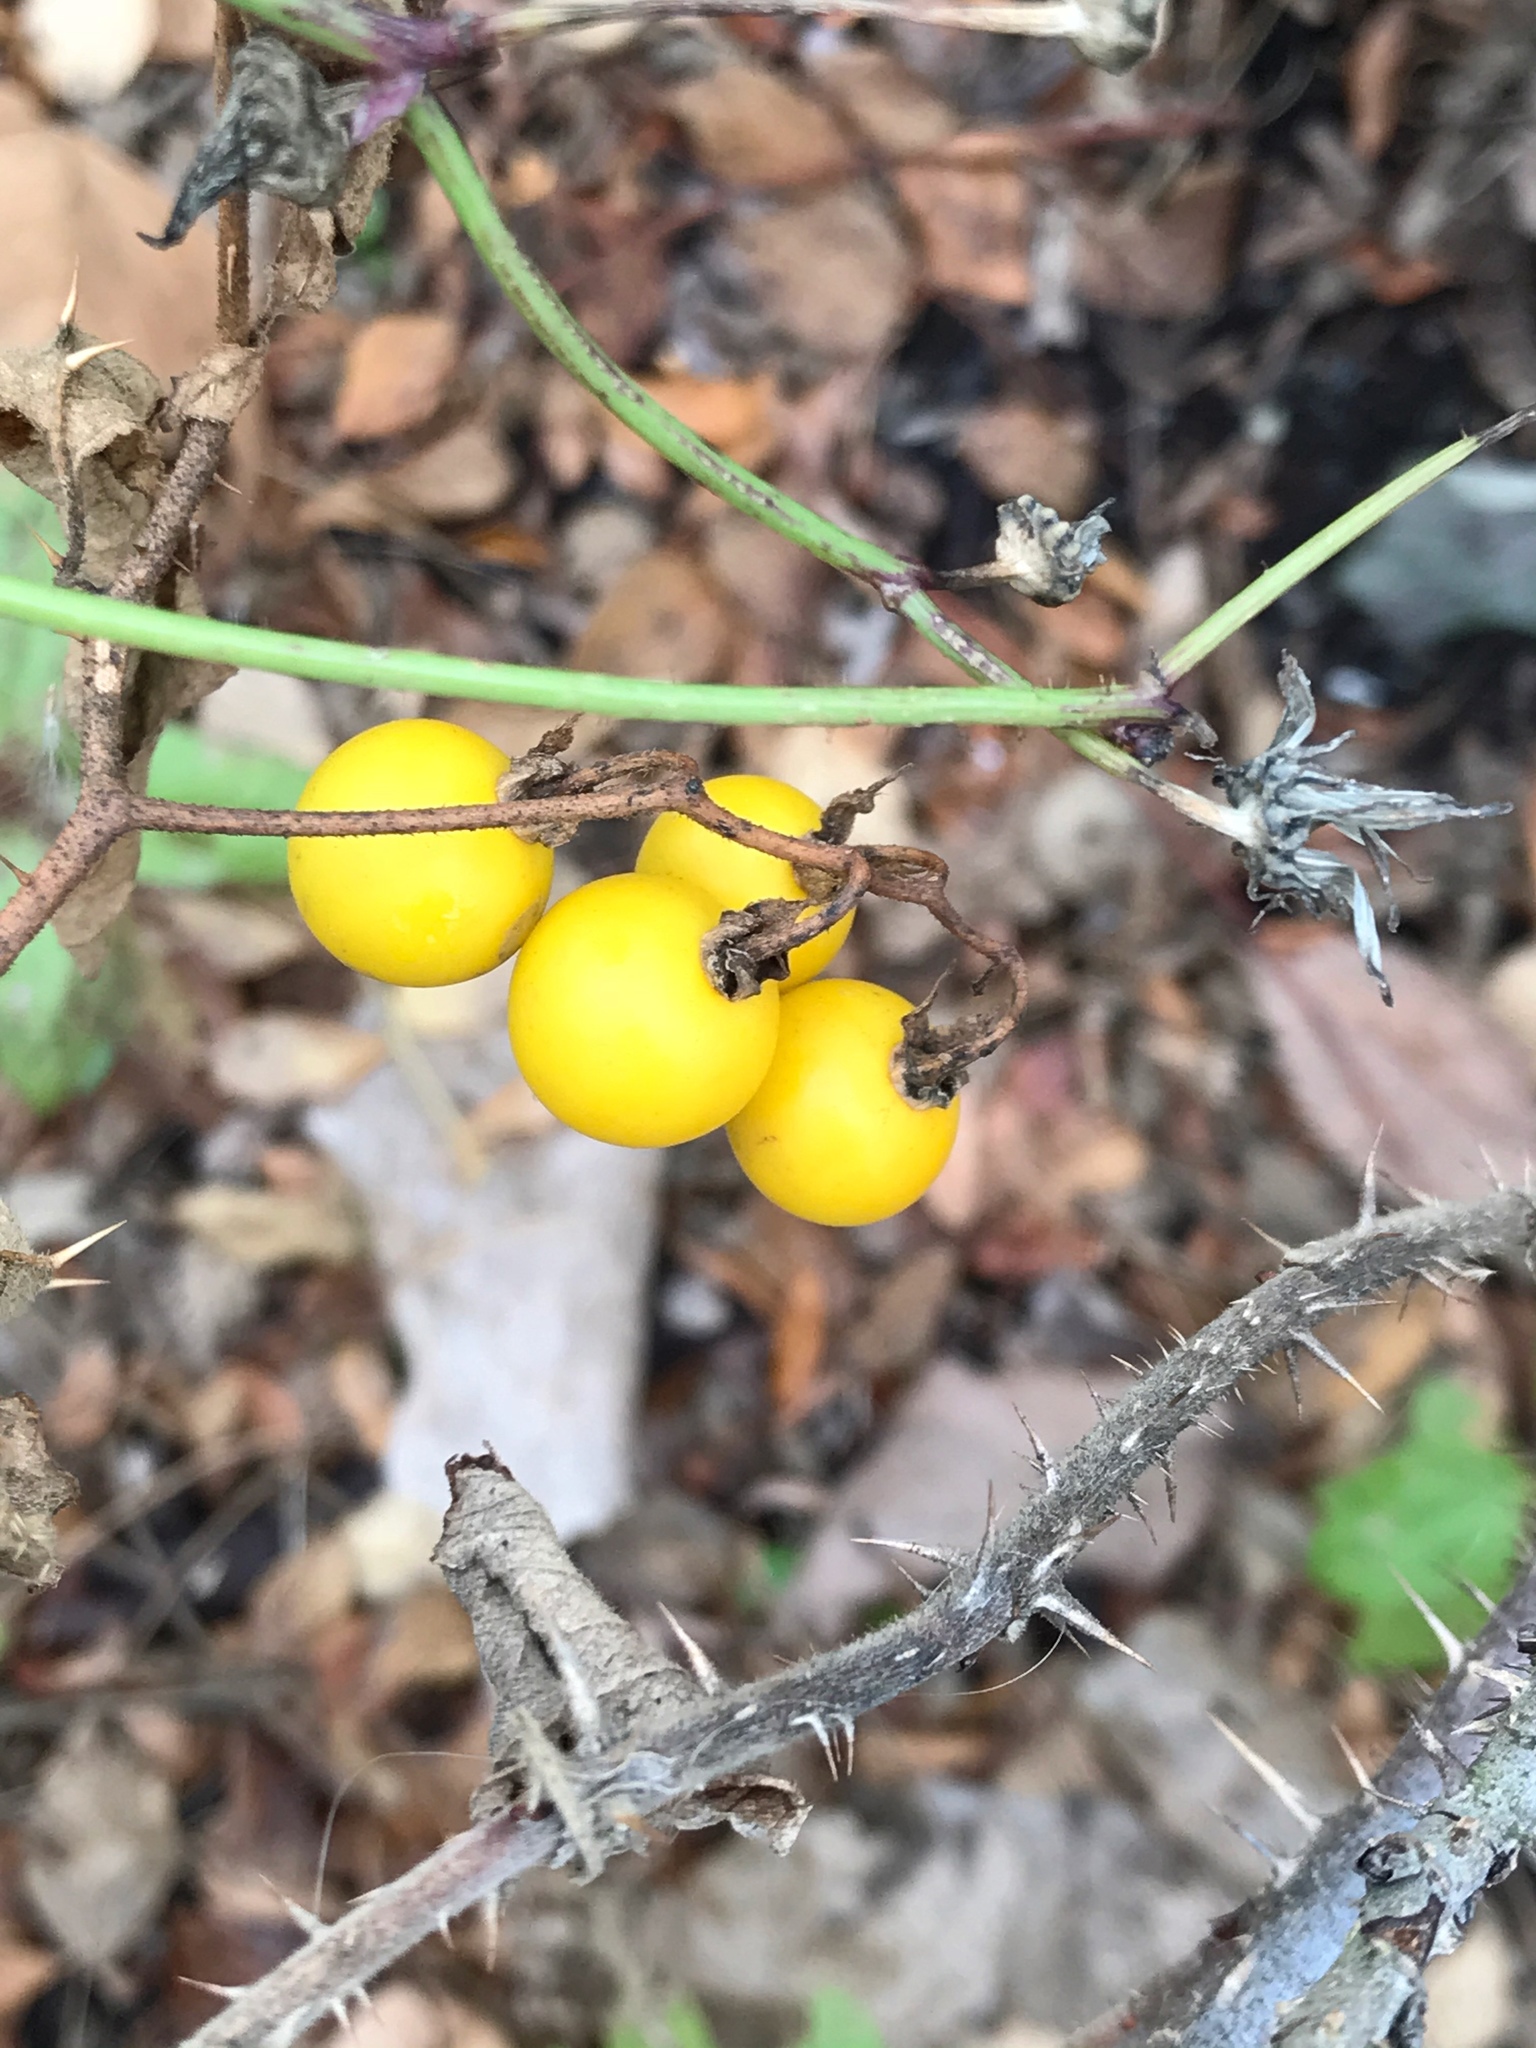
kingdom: Plantae
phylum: Tracheophyta
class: Magnoliopsida
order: Solanales
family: Solanaceae
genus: Solanum
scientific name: Solanum carolinense
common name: Horse-nettle
